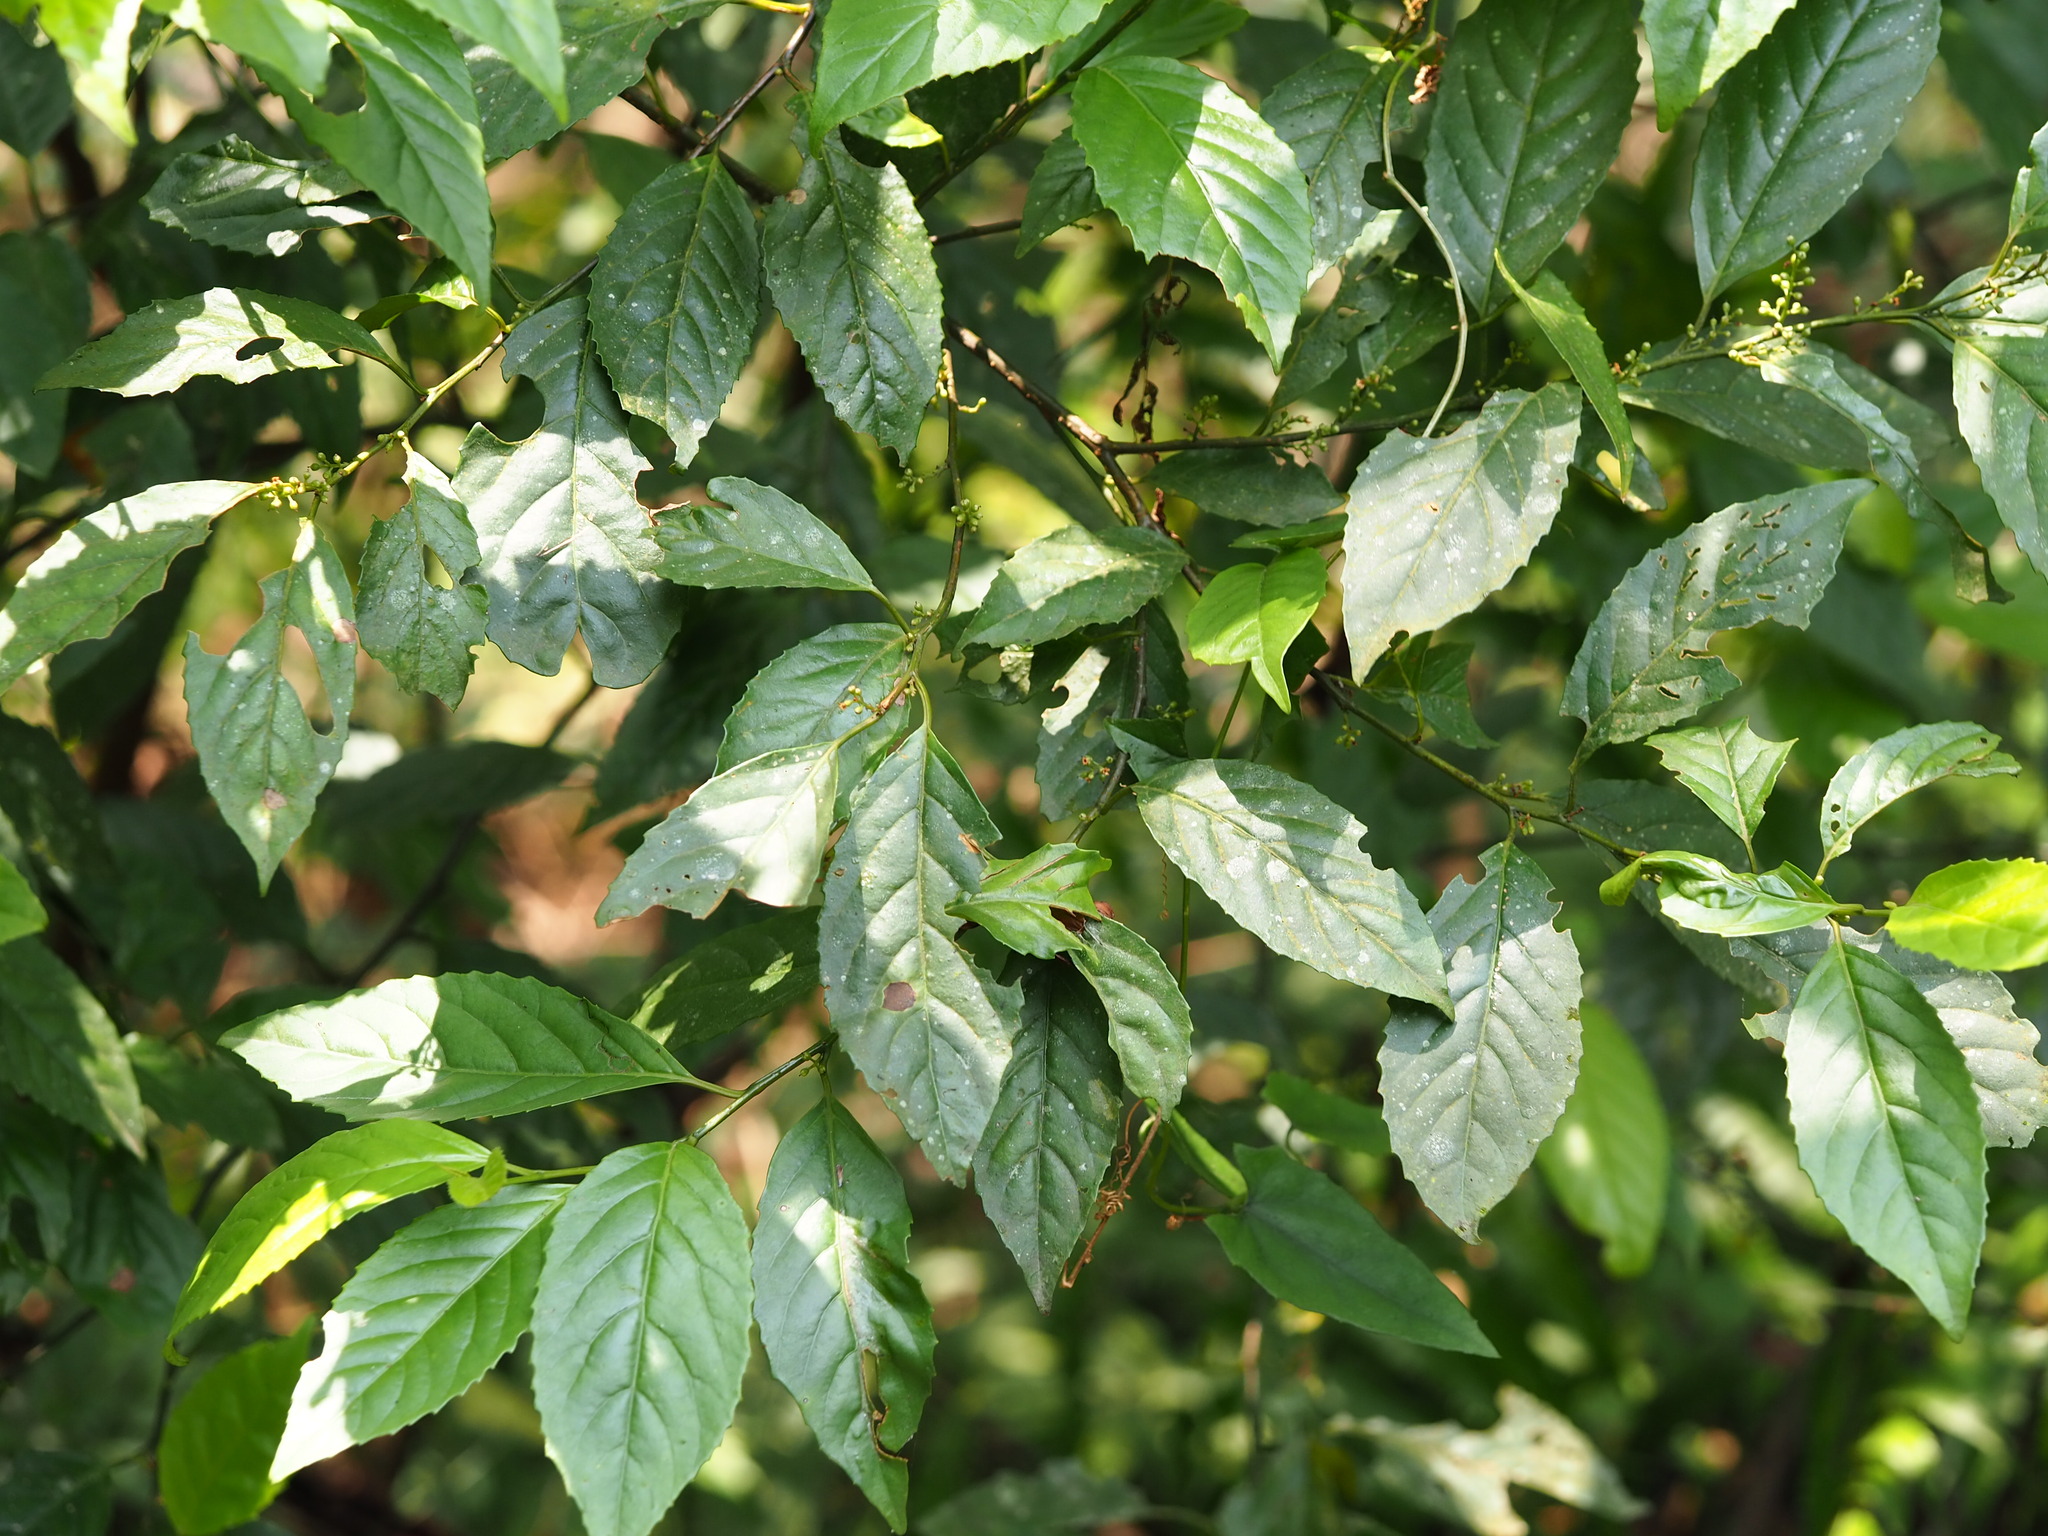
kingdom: Plantae
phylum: Tracheophyta
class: Magnoliopsida
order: Ericales
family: Primulaceae
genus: Maesa
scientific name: Maesa perlaria
